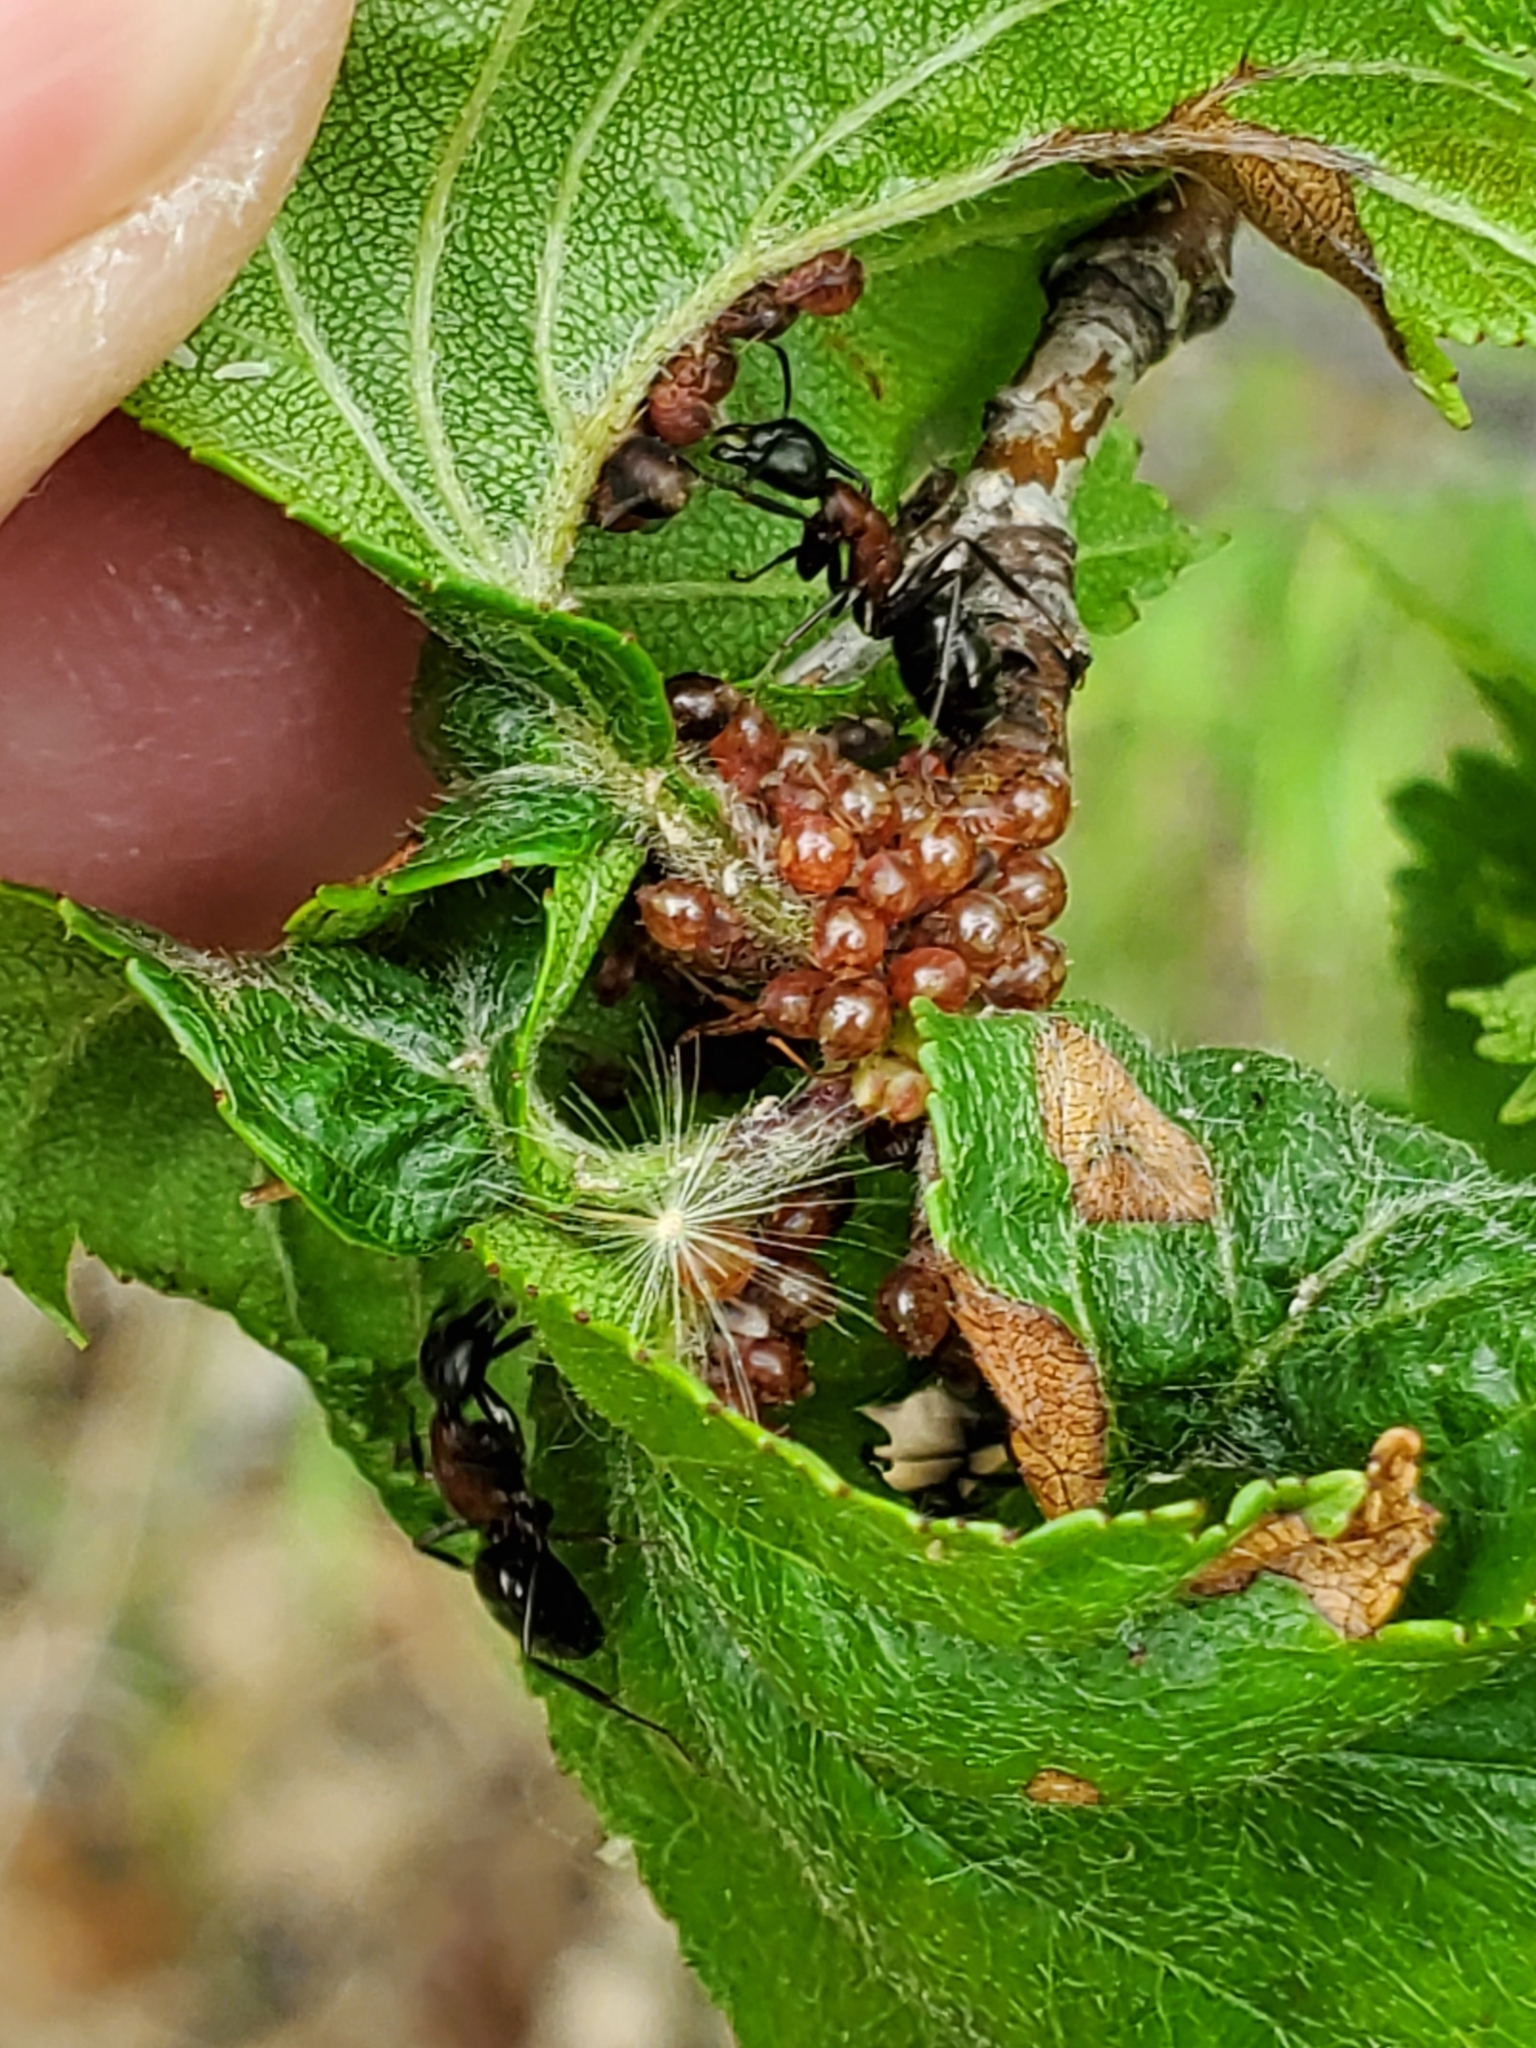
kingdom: Animalia
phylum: Arthropoda
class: Insecta
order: Hymenoptera
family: Formicidae
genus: Camponotus
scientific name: Camponotus novaeboracensis
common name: New york carpenter ant
